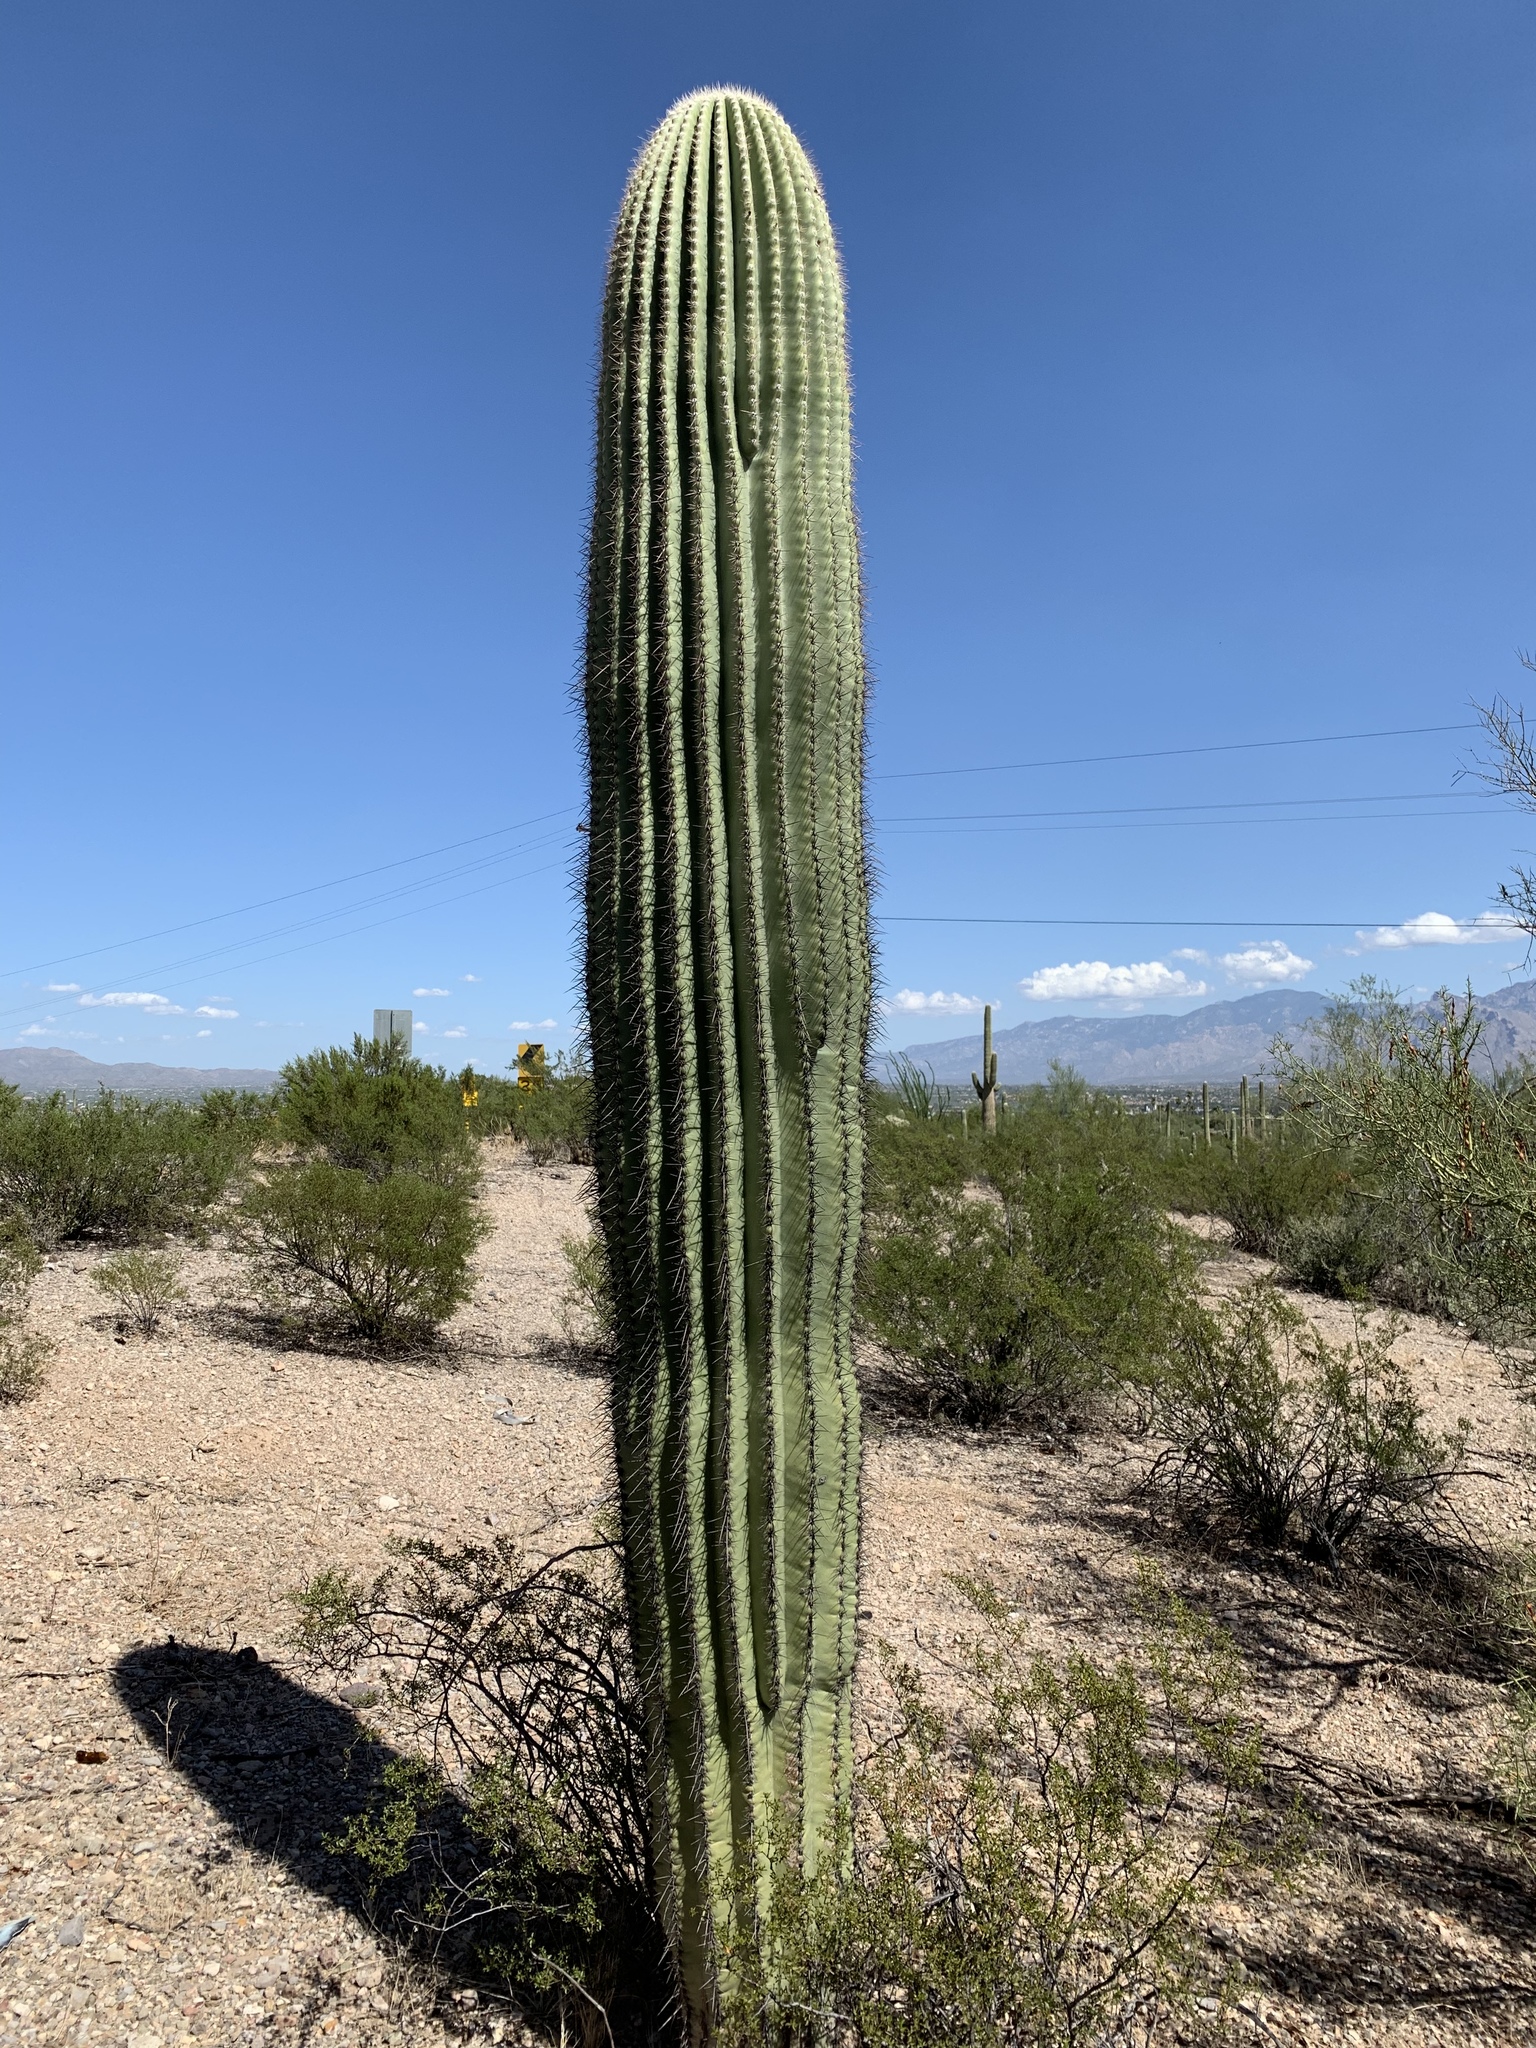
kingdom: Plantae
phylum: Tracheophyta
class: Magnoliopsida
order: Caryophyllales
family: Cactaceae
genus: Carnegiea
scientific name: Carnegiea gigantea
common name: Saguaro
